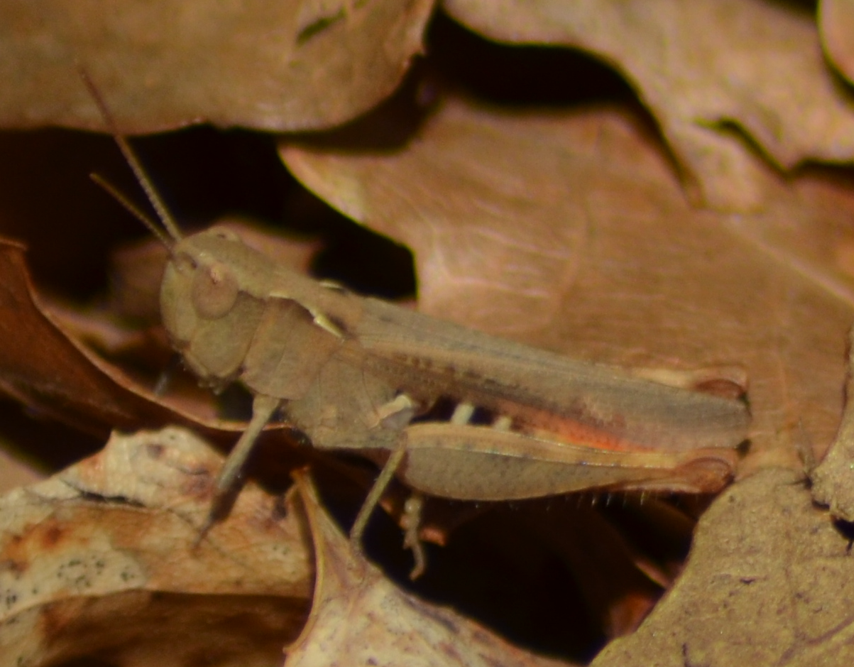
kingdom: Animalia
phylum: Arthropoda
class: Insecta
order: Orthoptera
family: Acrididae
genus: Chorthippus
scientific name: Chorthippus vagans
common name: Heath grasshopper
